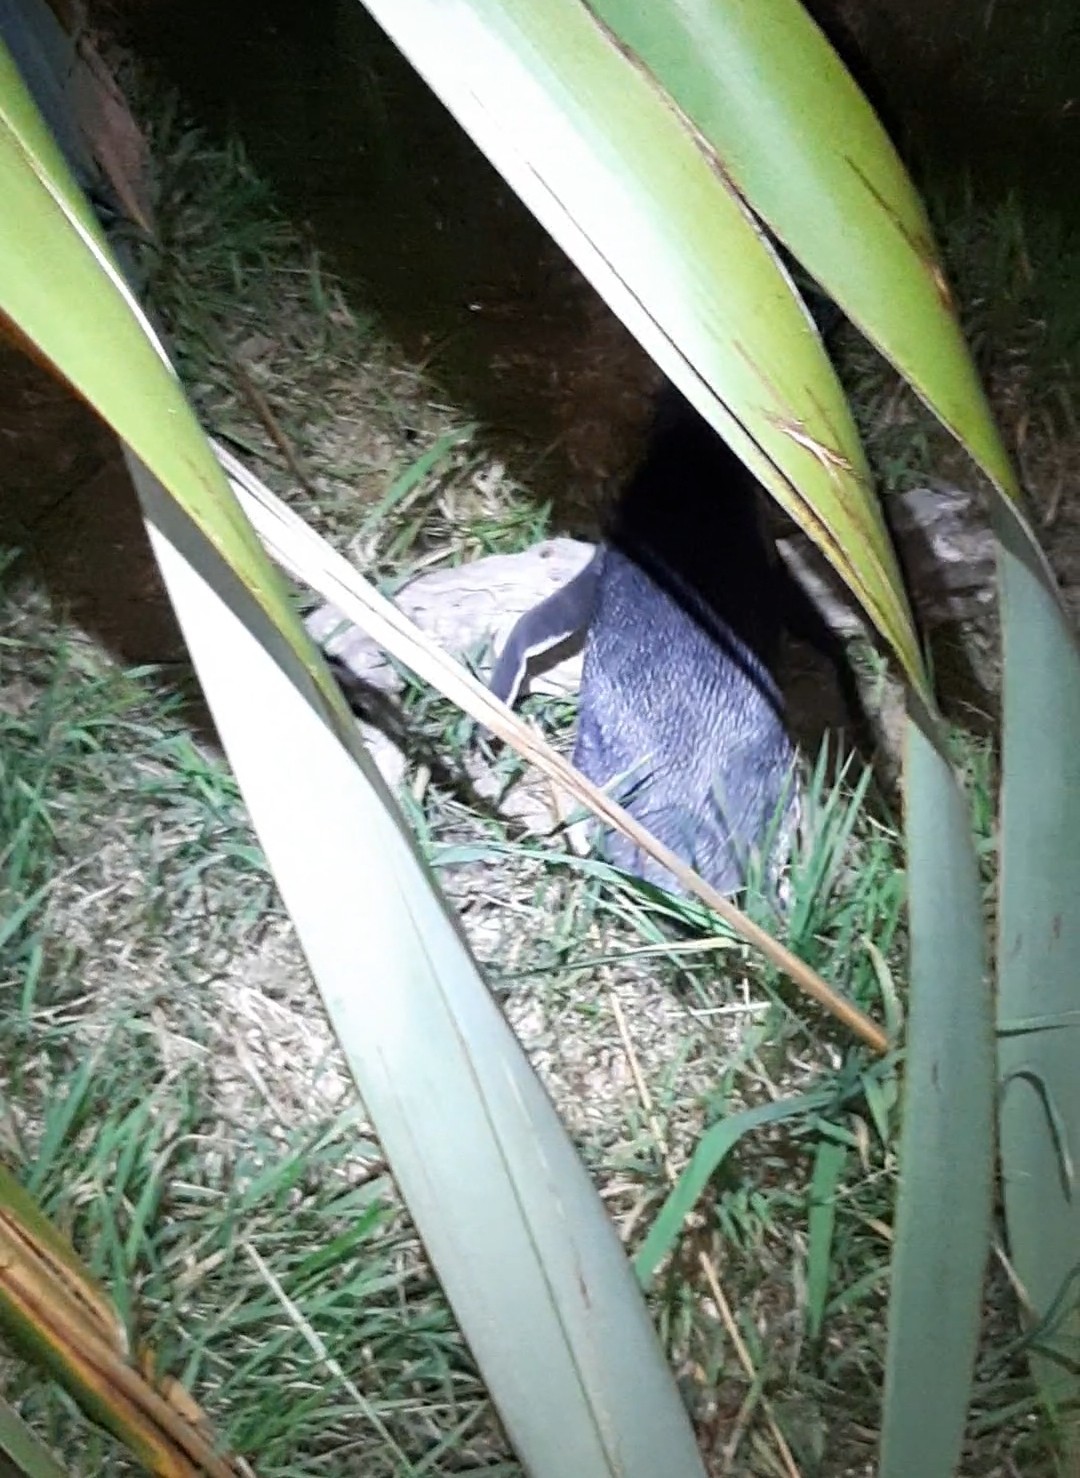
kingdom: Animalia
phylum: Chordata
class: Aves
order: Sphenisciformes
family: Spheniscidae
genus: Eudyptula
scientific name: Eudyptula minor
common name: Little penguin
